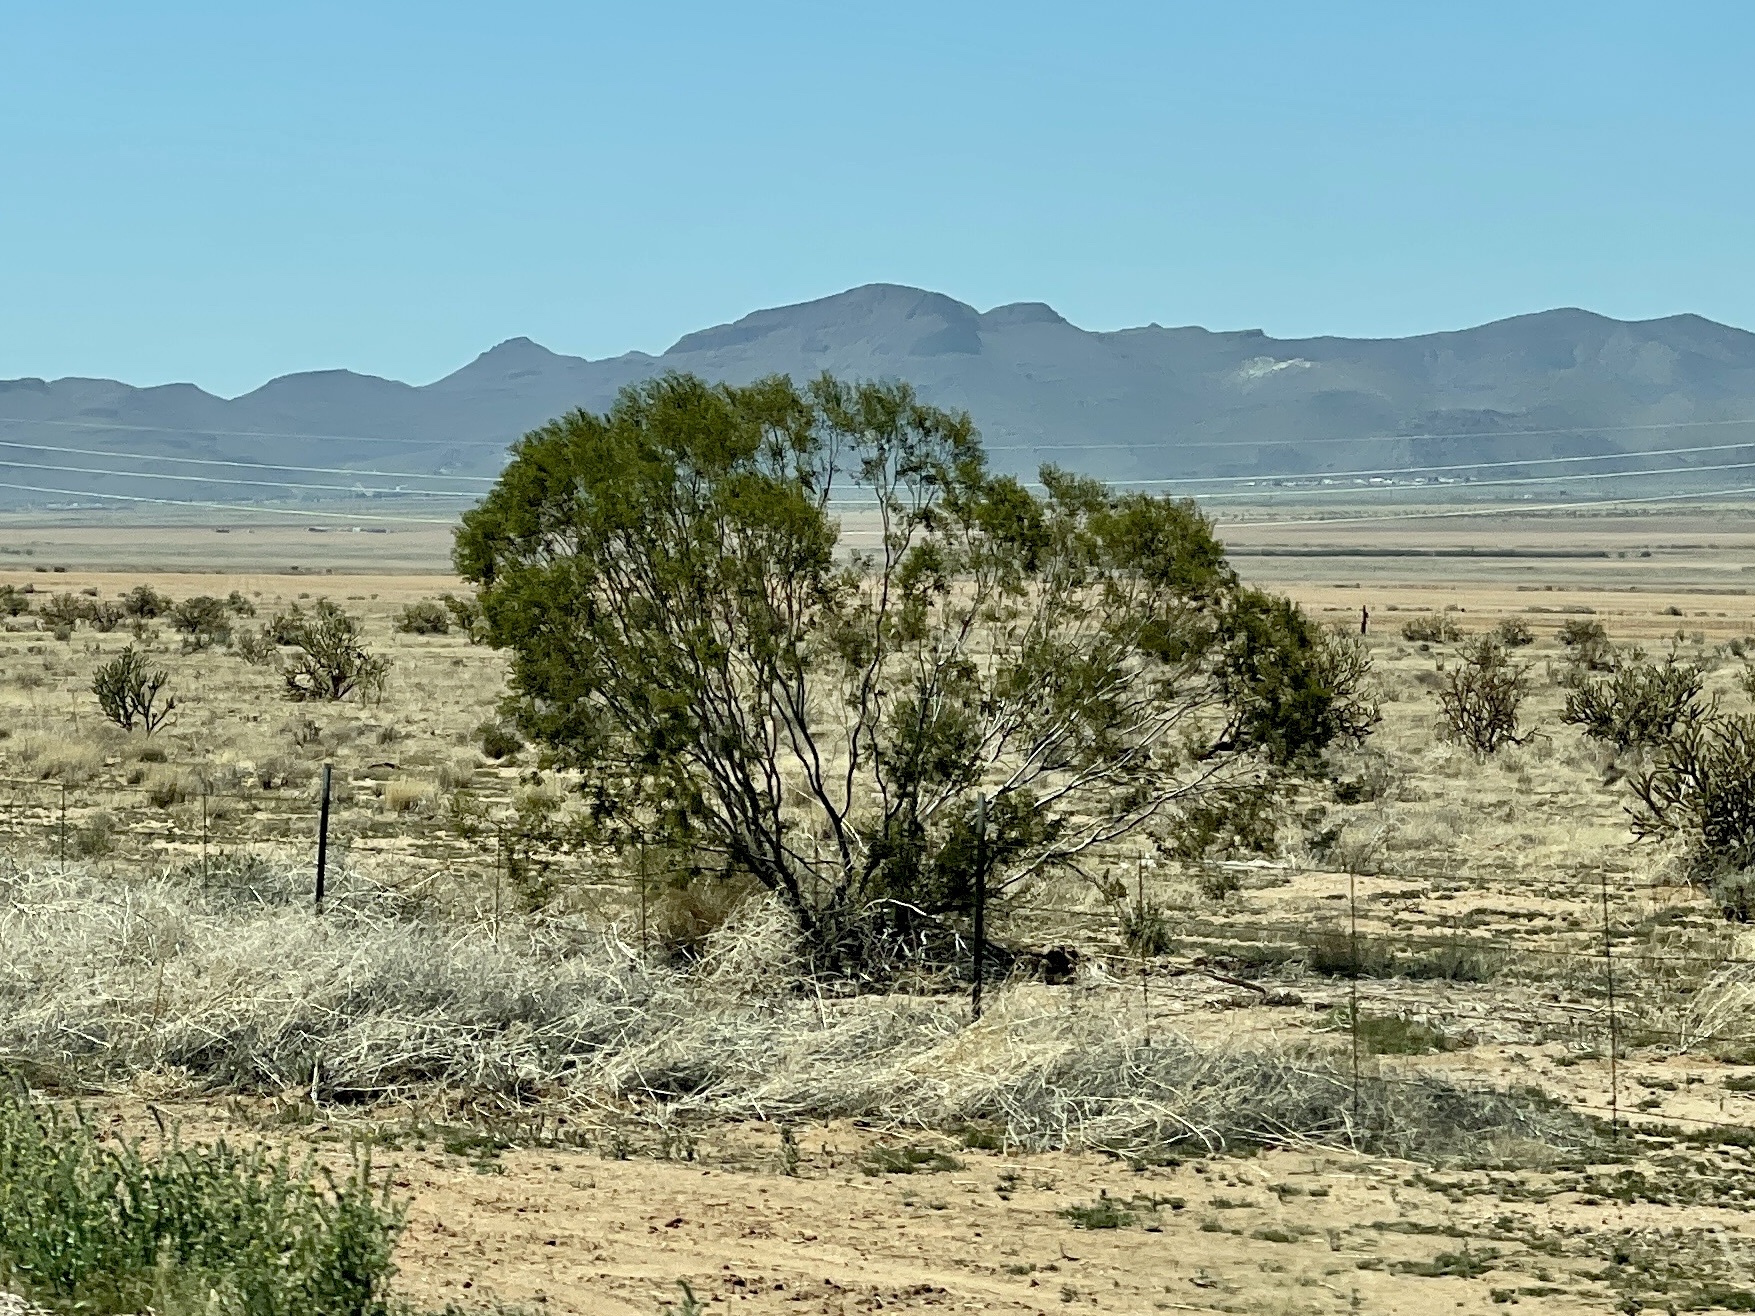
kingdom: Plantae
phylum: Tracheophyta
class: Magnoliopsida
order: Zygophyllales
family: Zygophyllaceae
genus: Larrea
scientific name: Larrea tridentata
